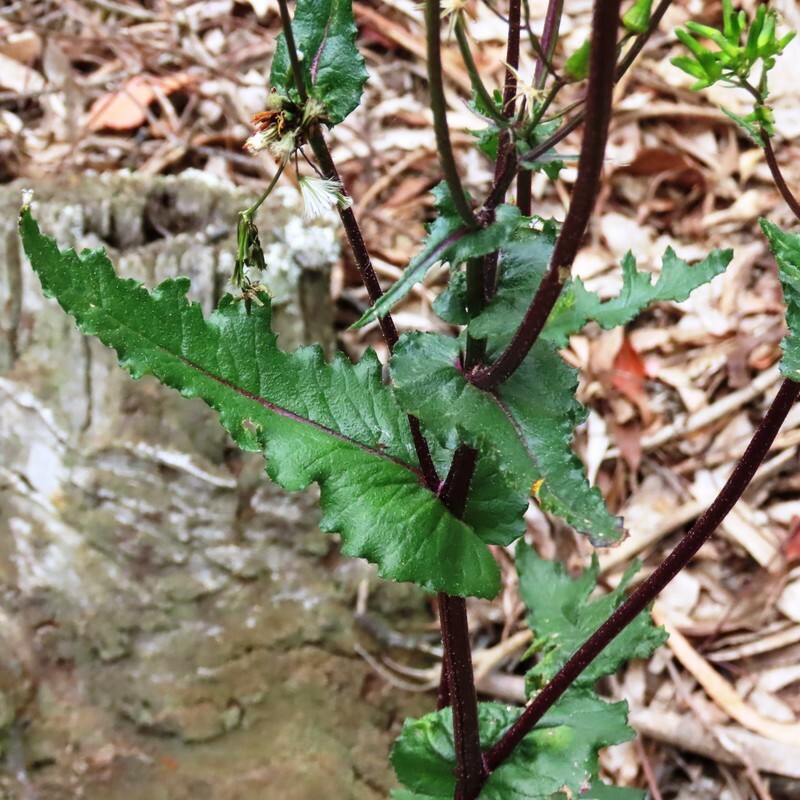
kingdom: Plantae
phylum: Tracheophyta
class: Magnoliopsida
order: Asterales
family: Asteraceae
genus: Senecio
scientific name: Senecio picridioides
